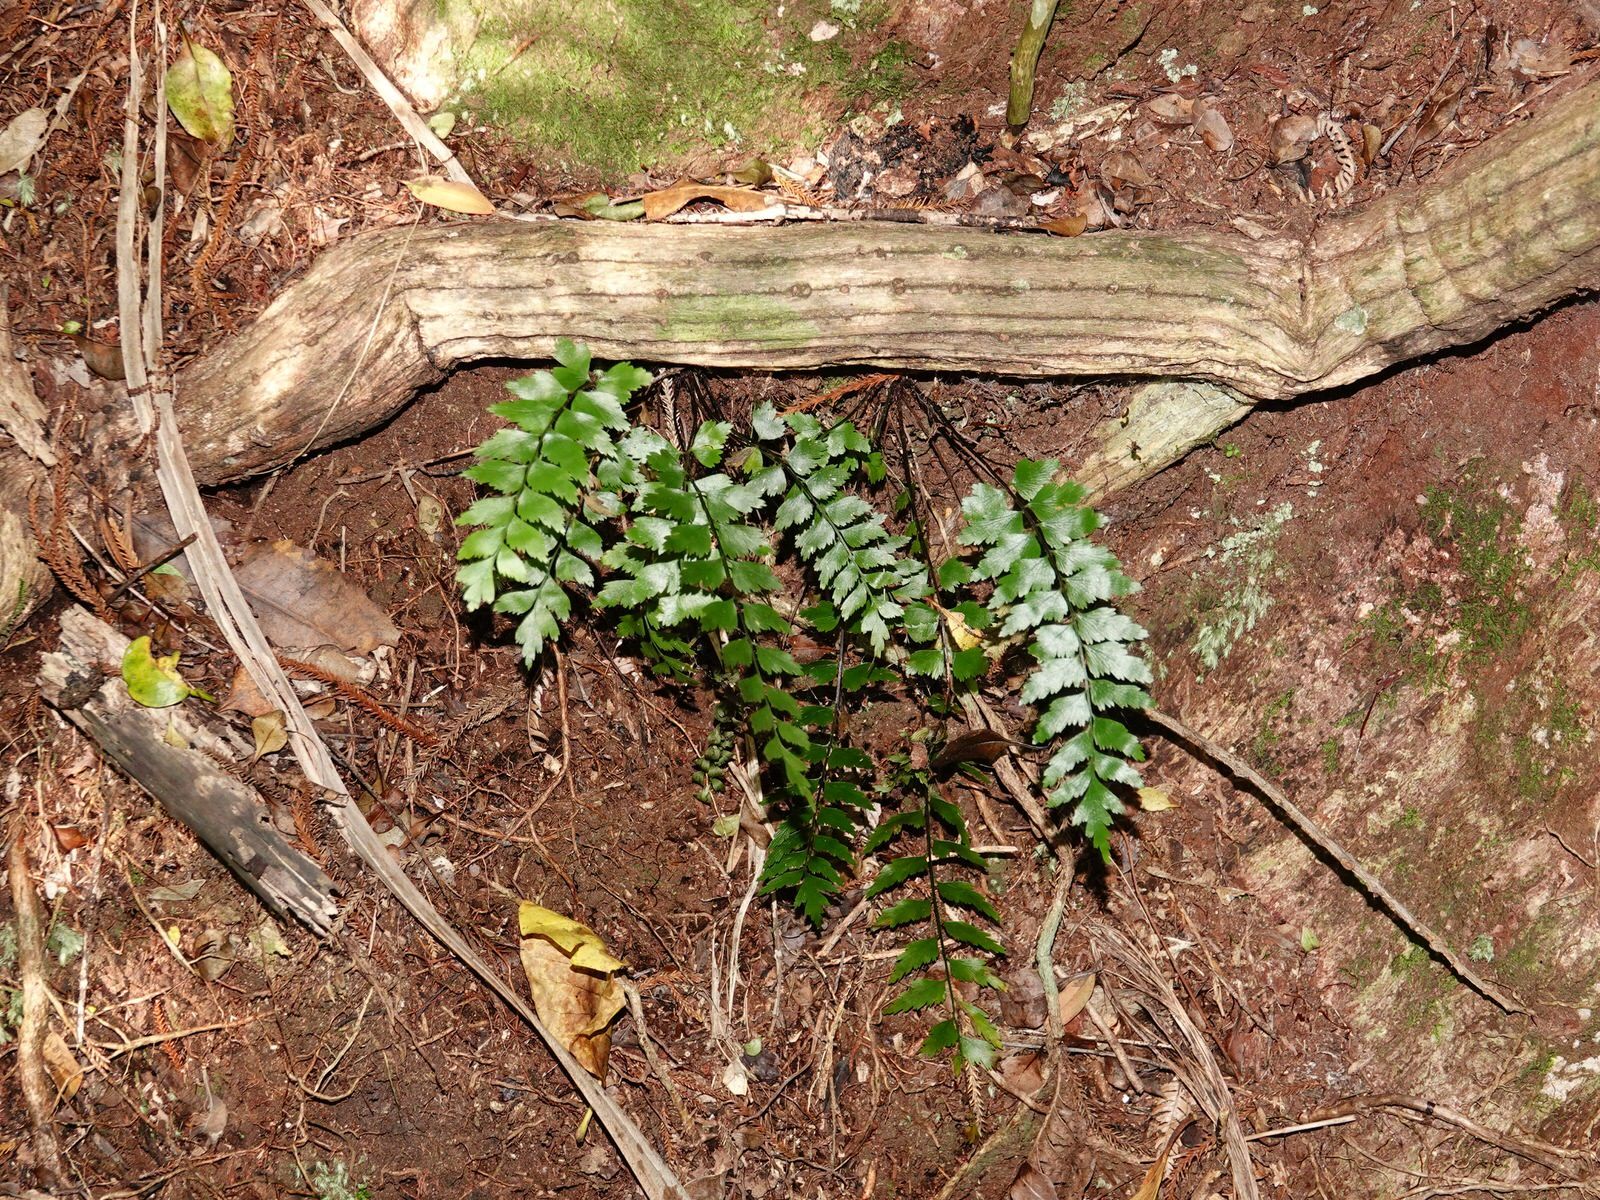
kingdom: Plantae
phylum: Tracheophyta
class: Polypodiopsida
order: Polypodiales
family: Aspleniaceae
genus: Asplenium
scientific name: Asplenium polyodon
